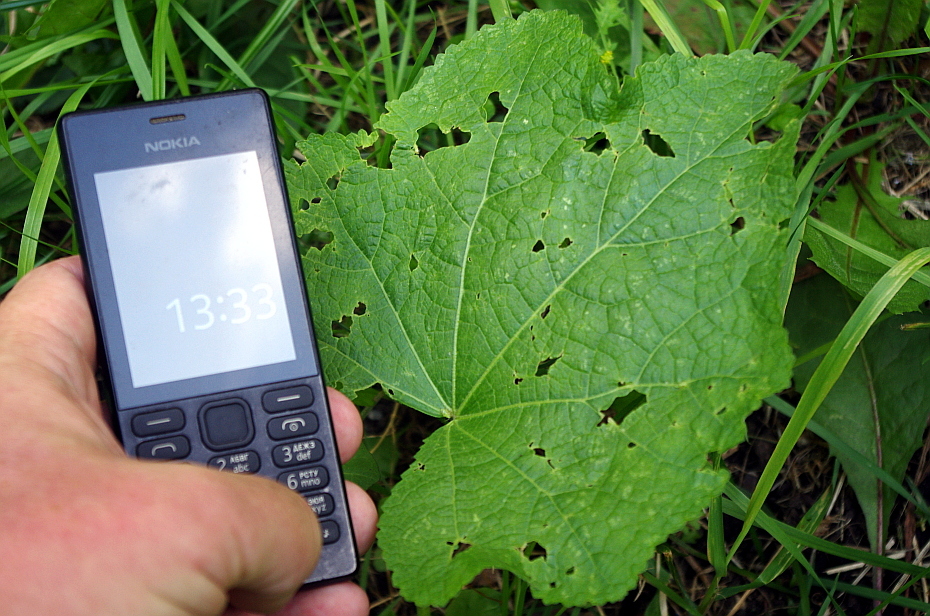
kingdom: Plantae
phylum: Tracheophyta
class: Magnoliopsida
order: Malvales
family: Malvaceae
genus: Alcea
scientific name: Alcea rosea
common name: Hollyhock
